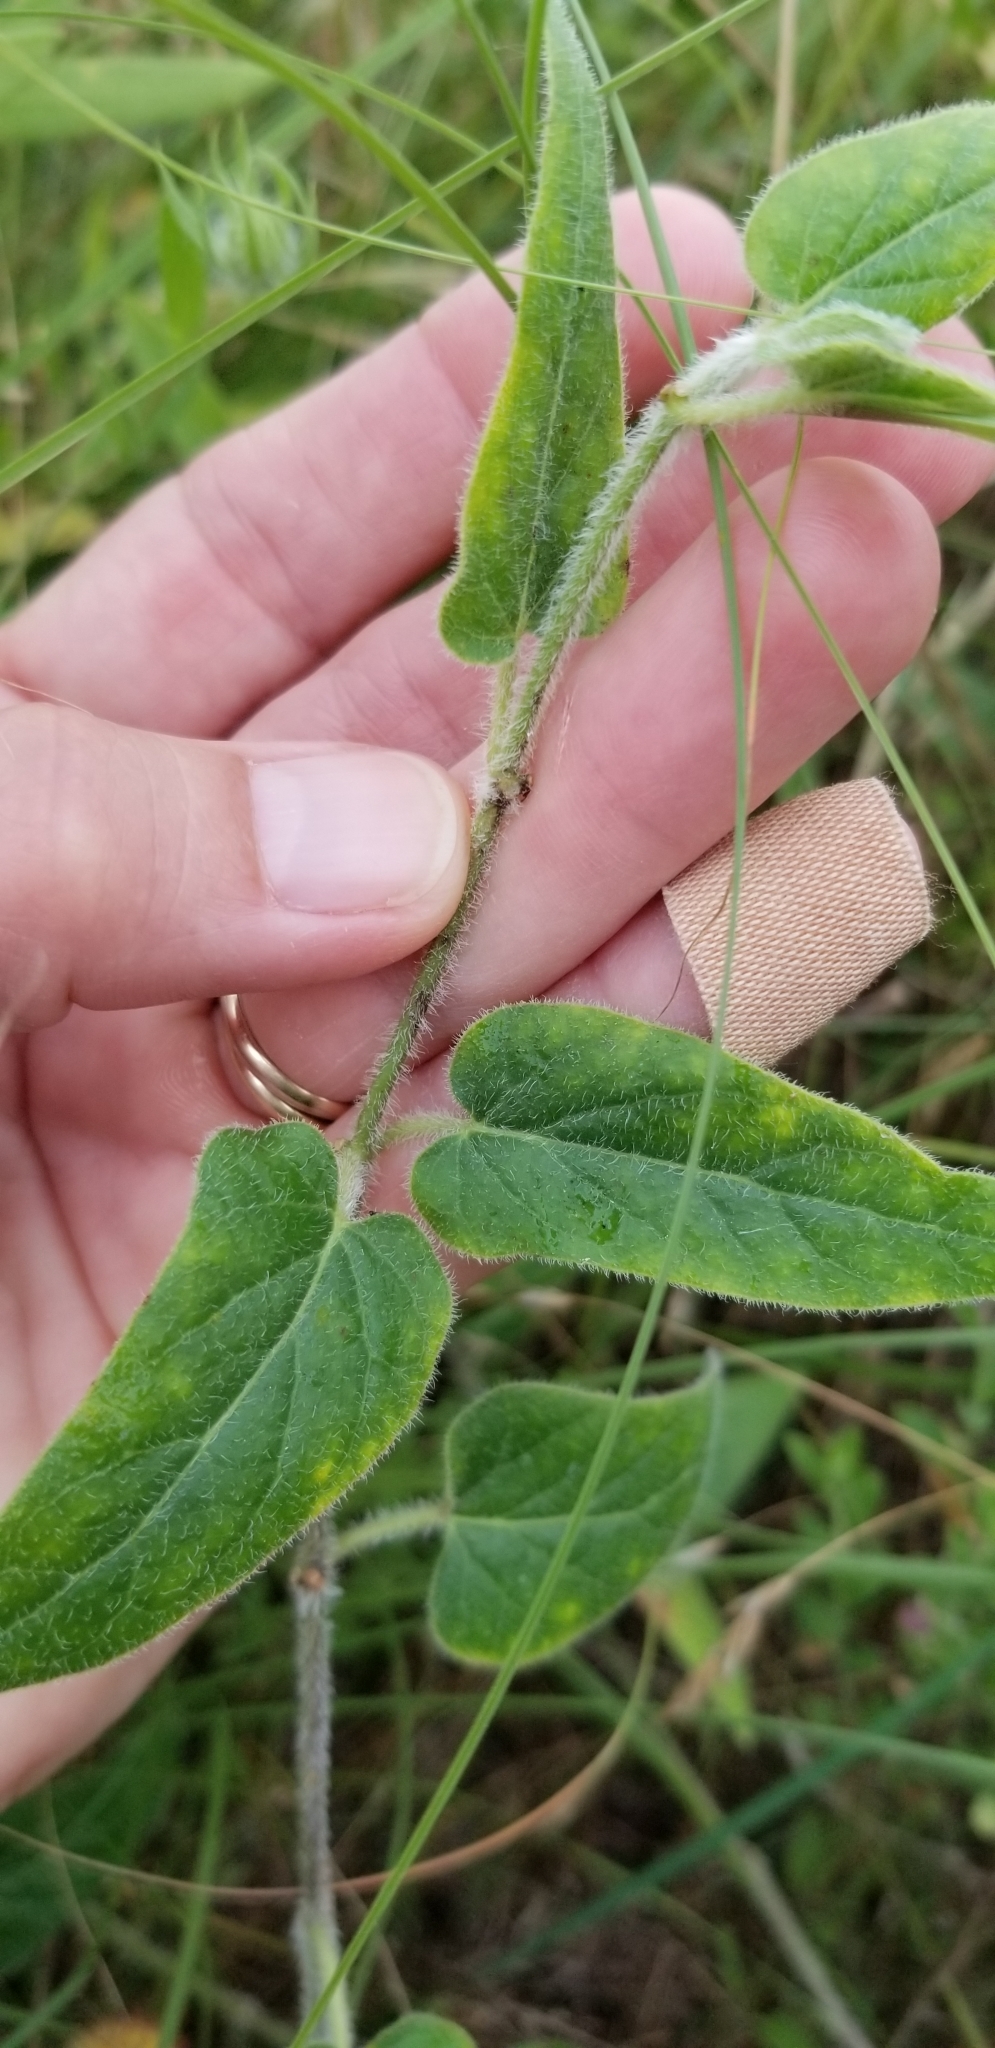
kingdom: Plantae
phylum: Tracheophyta
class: Magnoliopsida
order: Gentianales
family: Apocynaceae
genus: Chthamalia
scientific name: Chthamalia biflora
